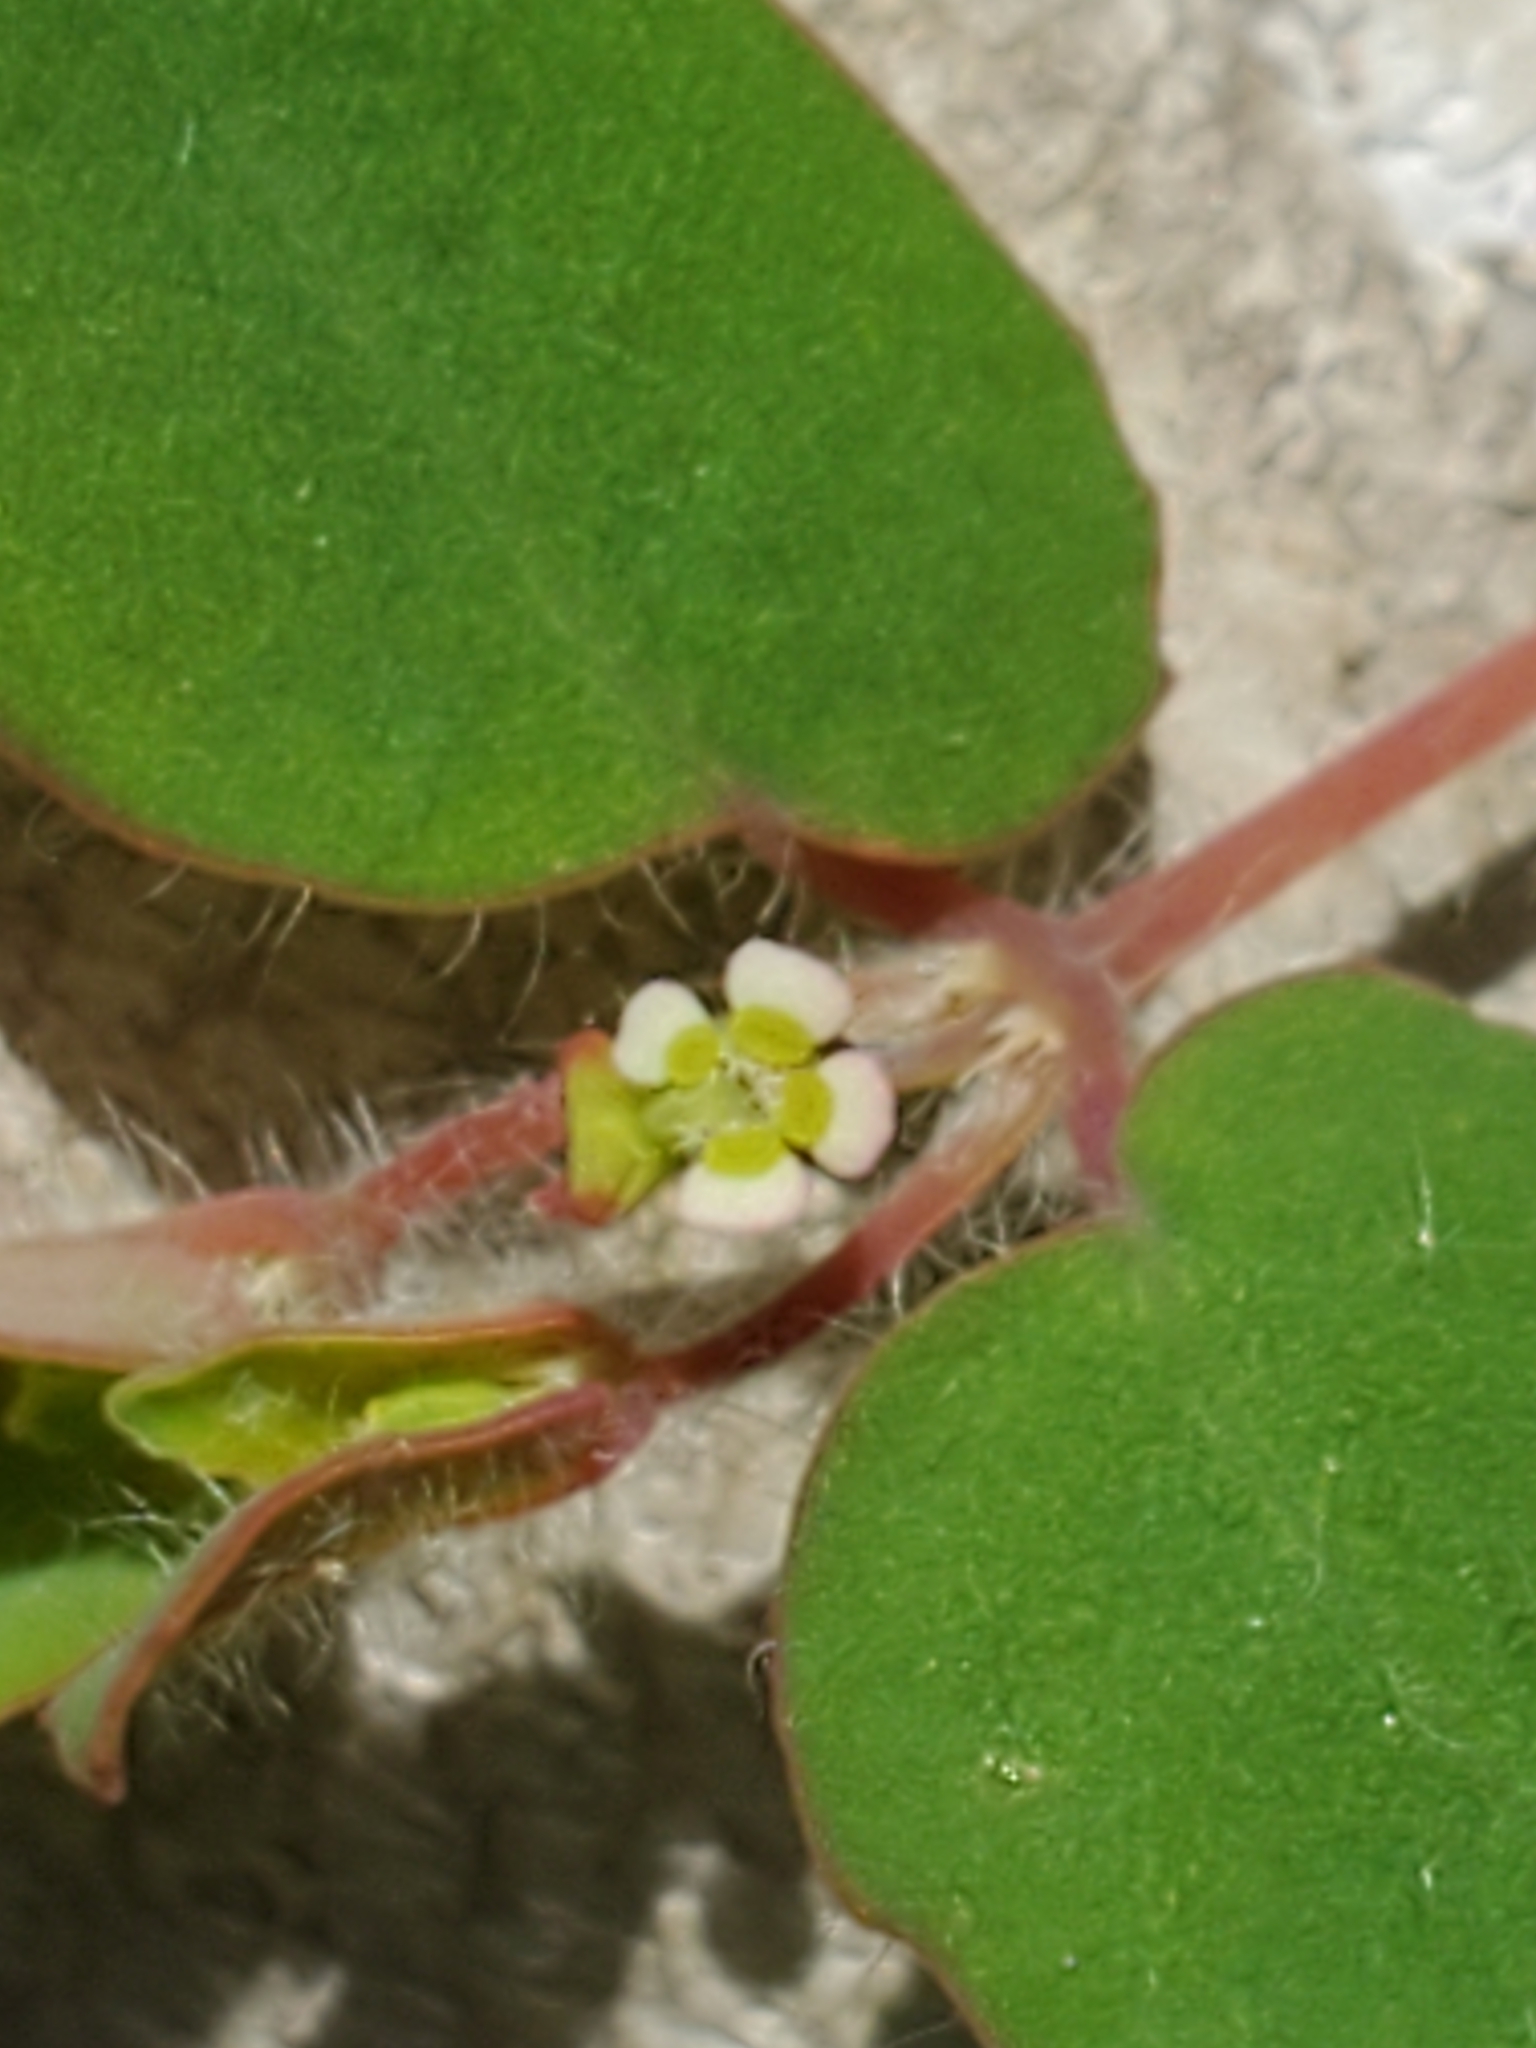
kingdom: Plantae
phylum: Tracheophyta
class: Magnoliopsida
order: Malpighiales
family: Euphorbiaceae
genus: Euphorbia
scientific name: Euphorbia villifera
